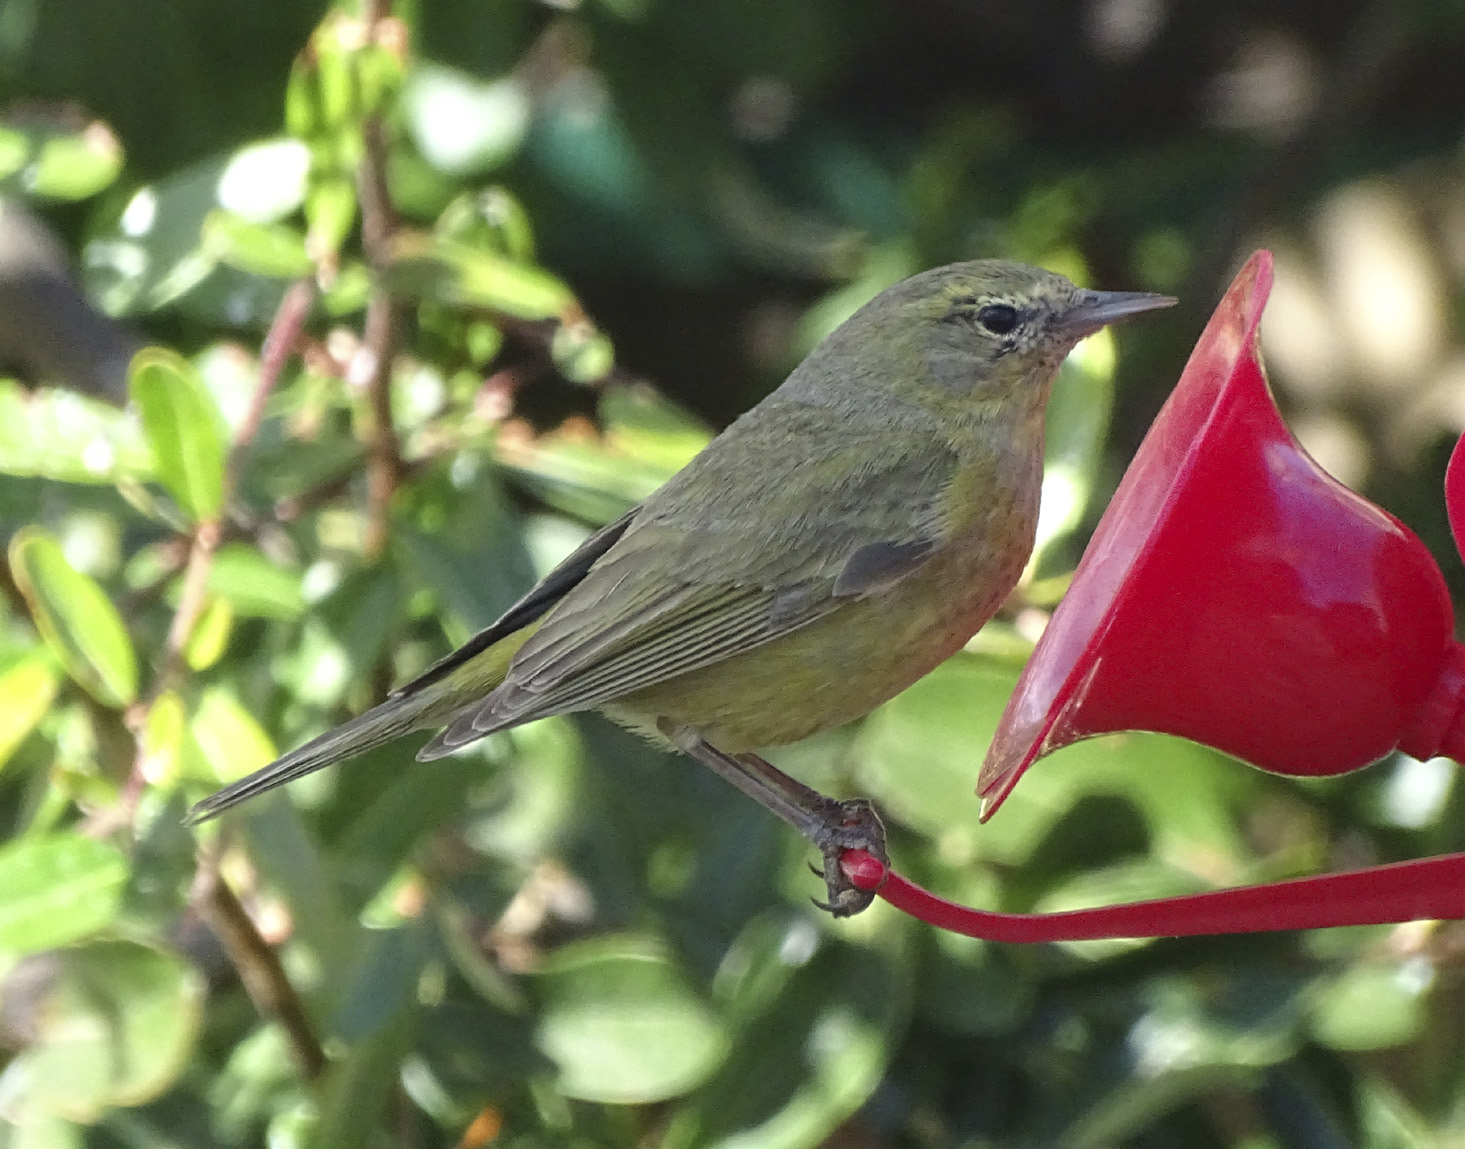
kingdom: Animalia
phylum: Chordata
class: Aves
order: Passeriformes
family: Parulidae
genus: Leiothlypis
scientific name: Leiothlypis celata
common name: Orange-crowned warbler
